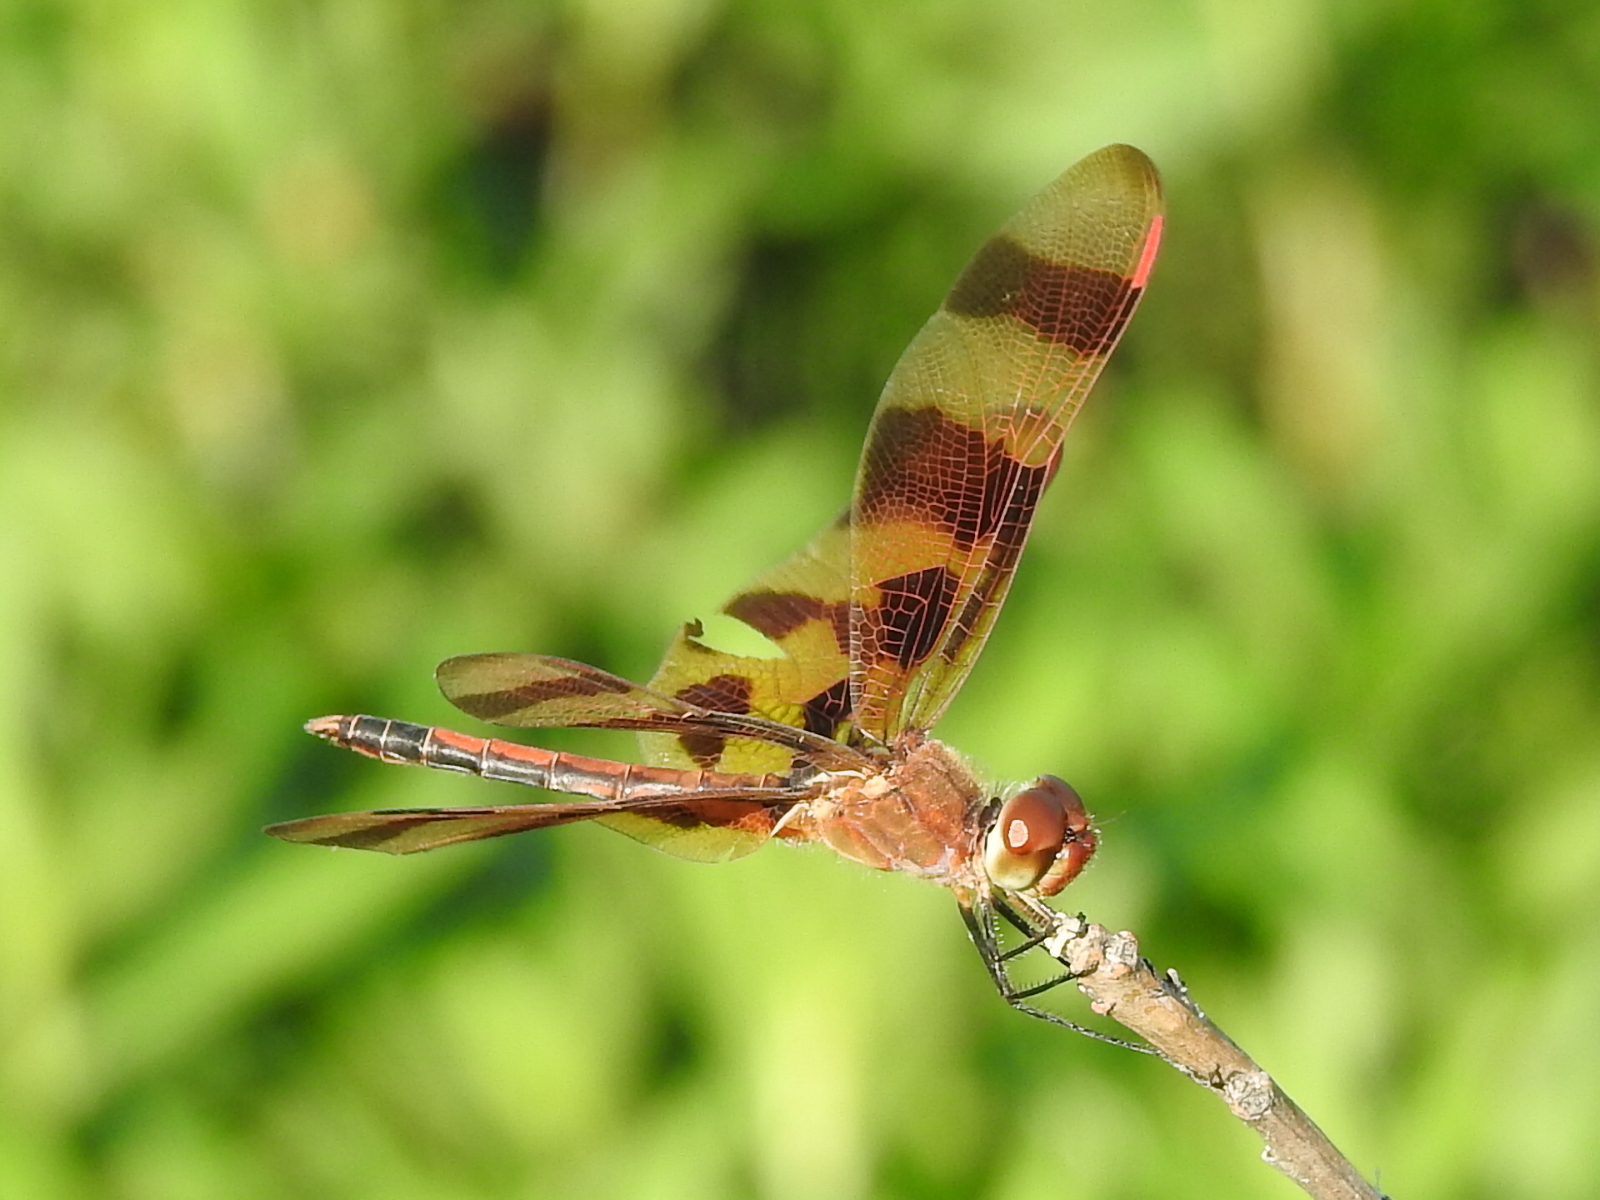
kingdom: Animalia
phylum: Arthropoda
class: Insecta
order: Odonata
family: Libellulidae
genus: Celithemis
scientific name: Celithemis eponina
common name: Halloween pennant
